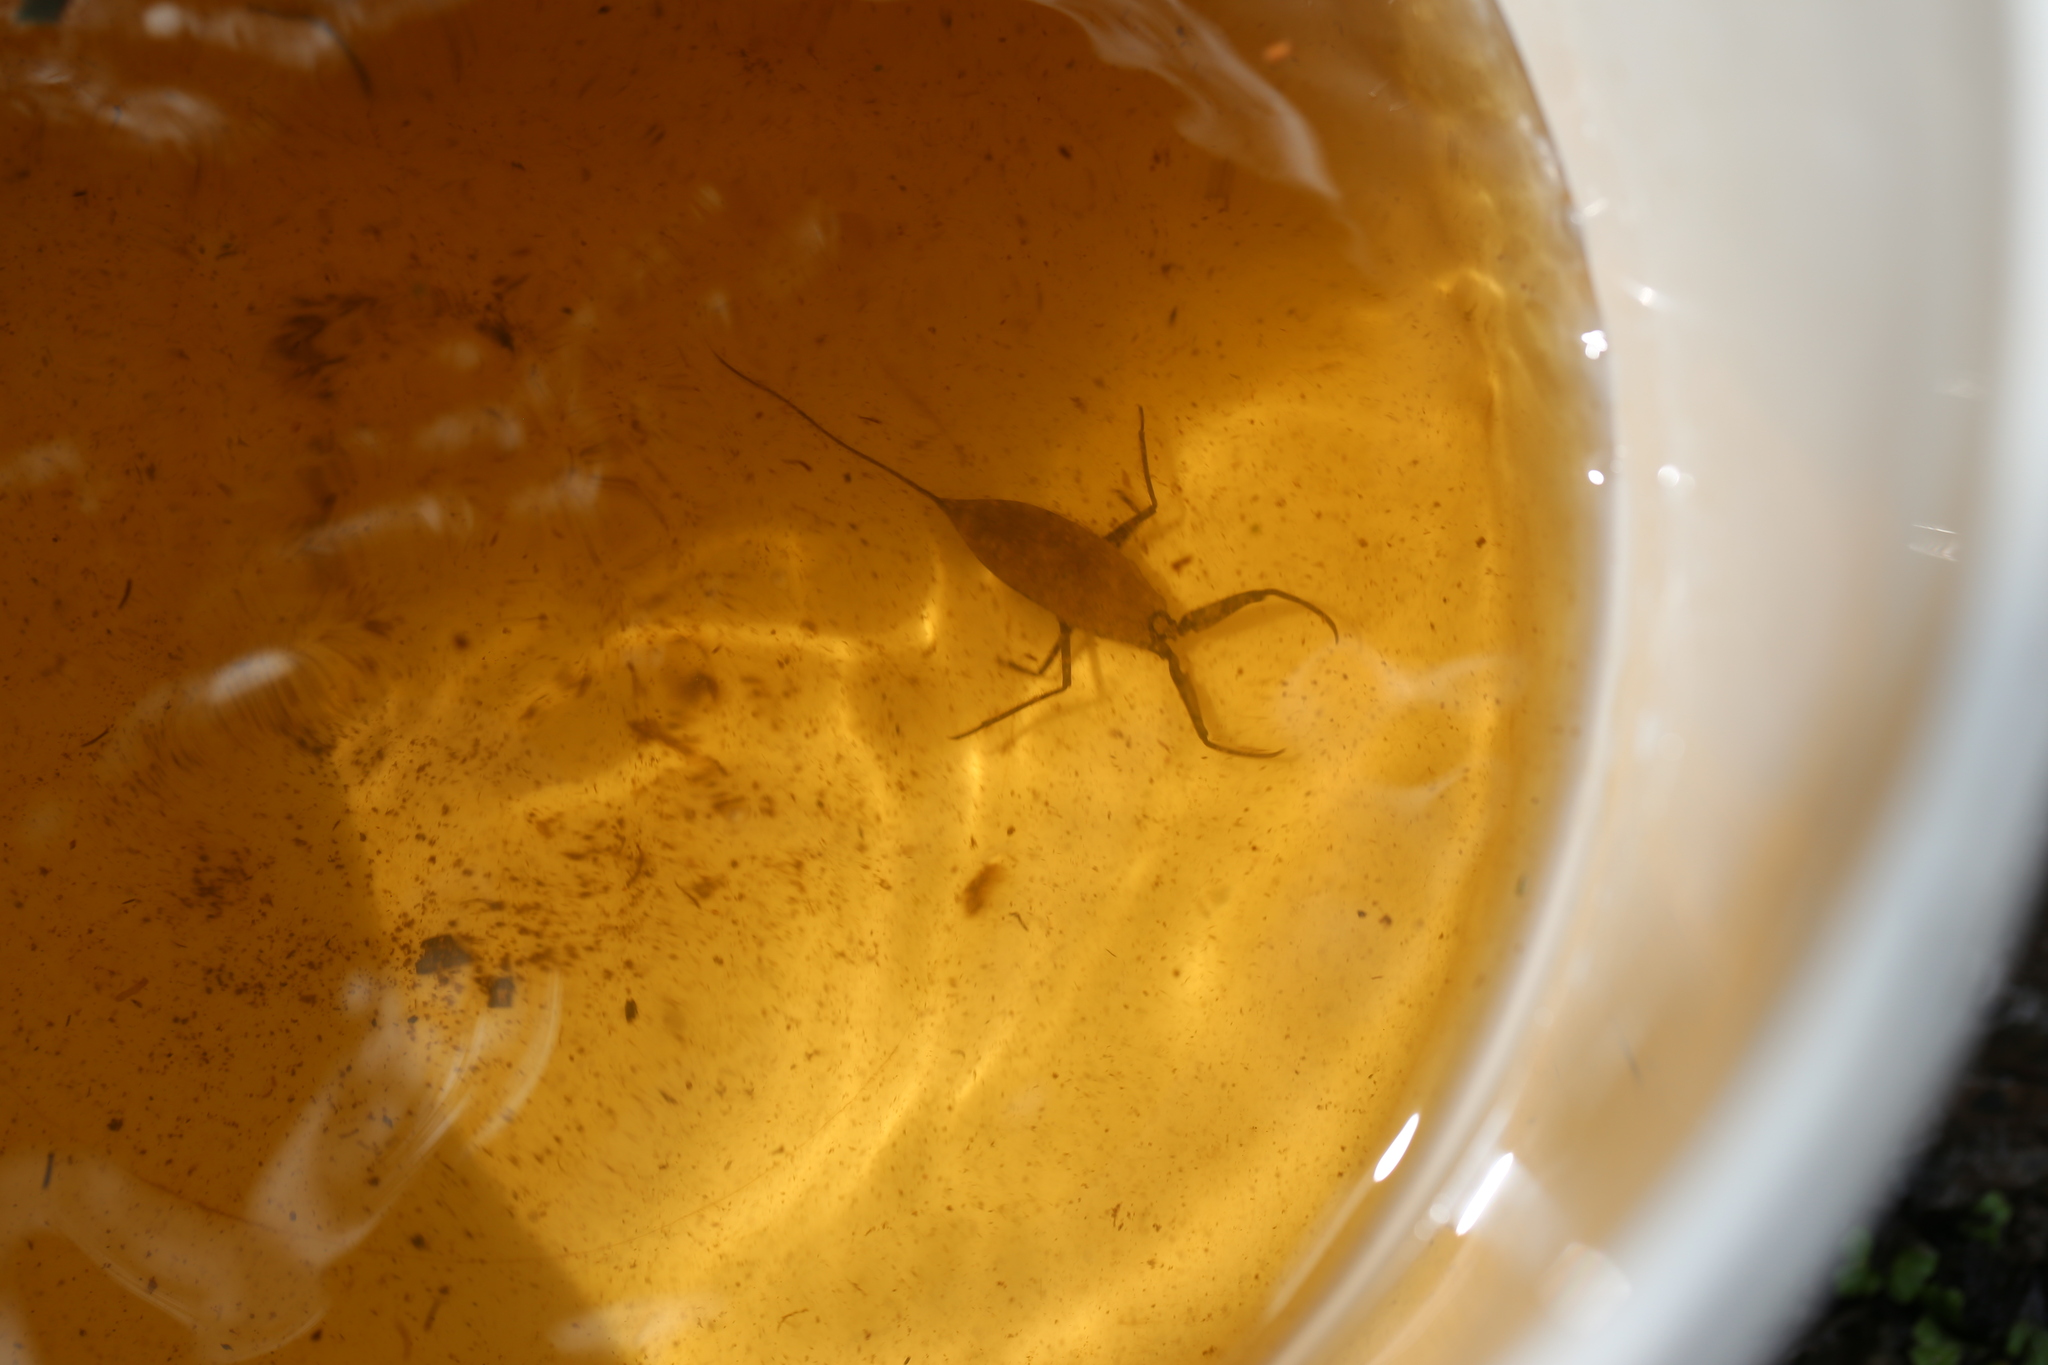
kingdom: Animalia
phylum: Arthropoda
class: Insecta
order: Hemiptera
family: Nepidae
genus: Laccotrephes
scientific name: Laccotrephes tristis
